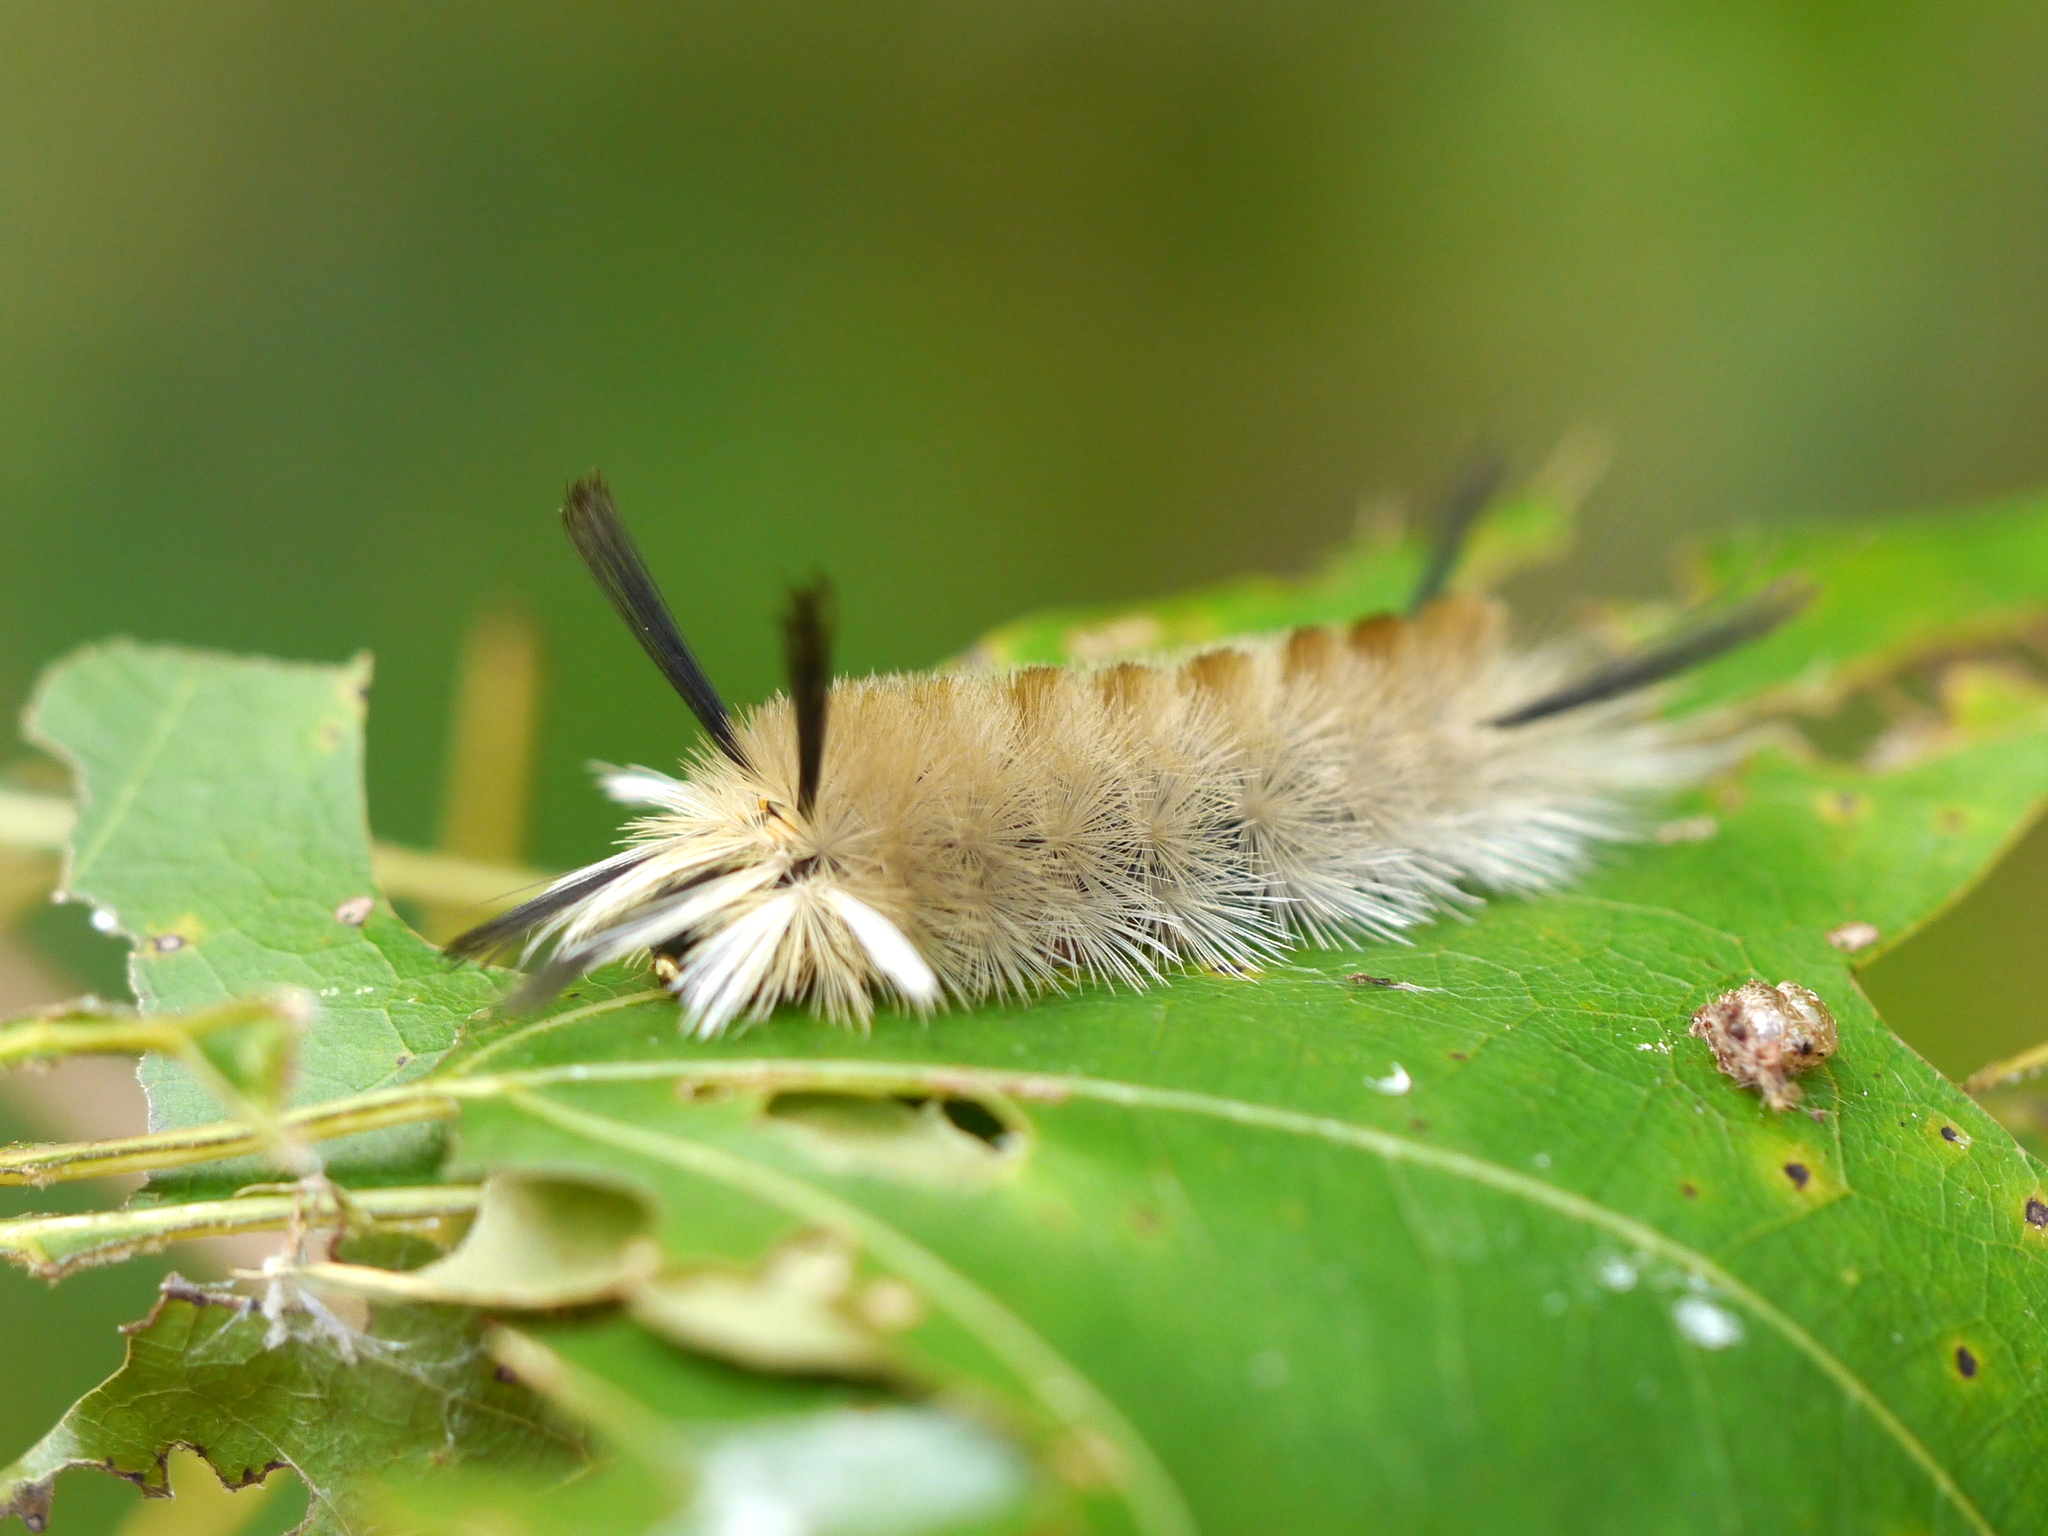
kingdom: Animalia
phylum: Arthropoda
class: Insecta
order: Lepidoptera
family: Erebidae
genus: Halysidota
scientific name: Halysidota tessellaris
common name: Banded tussock moth
